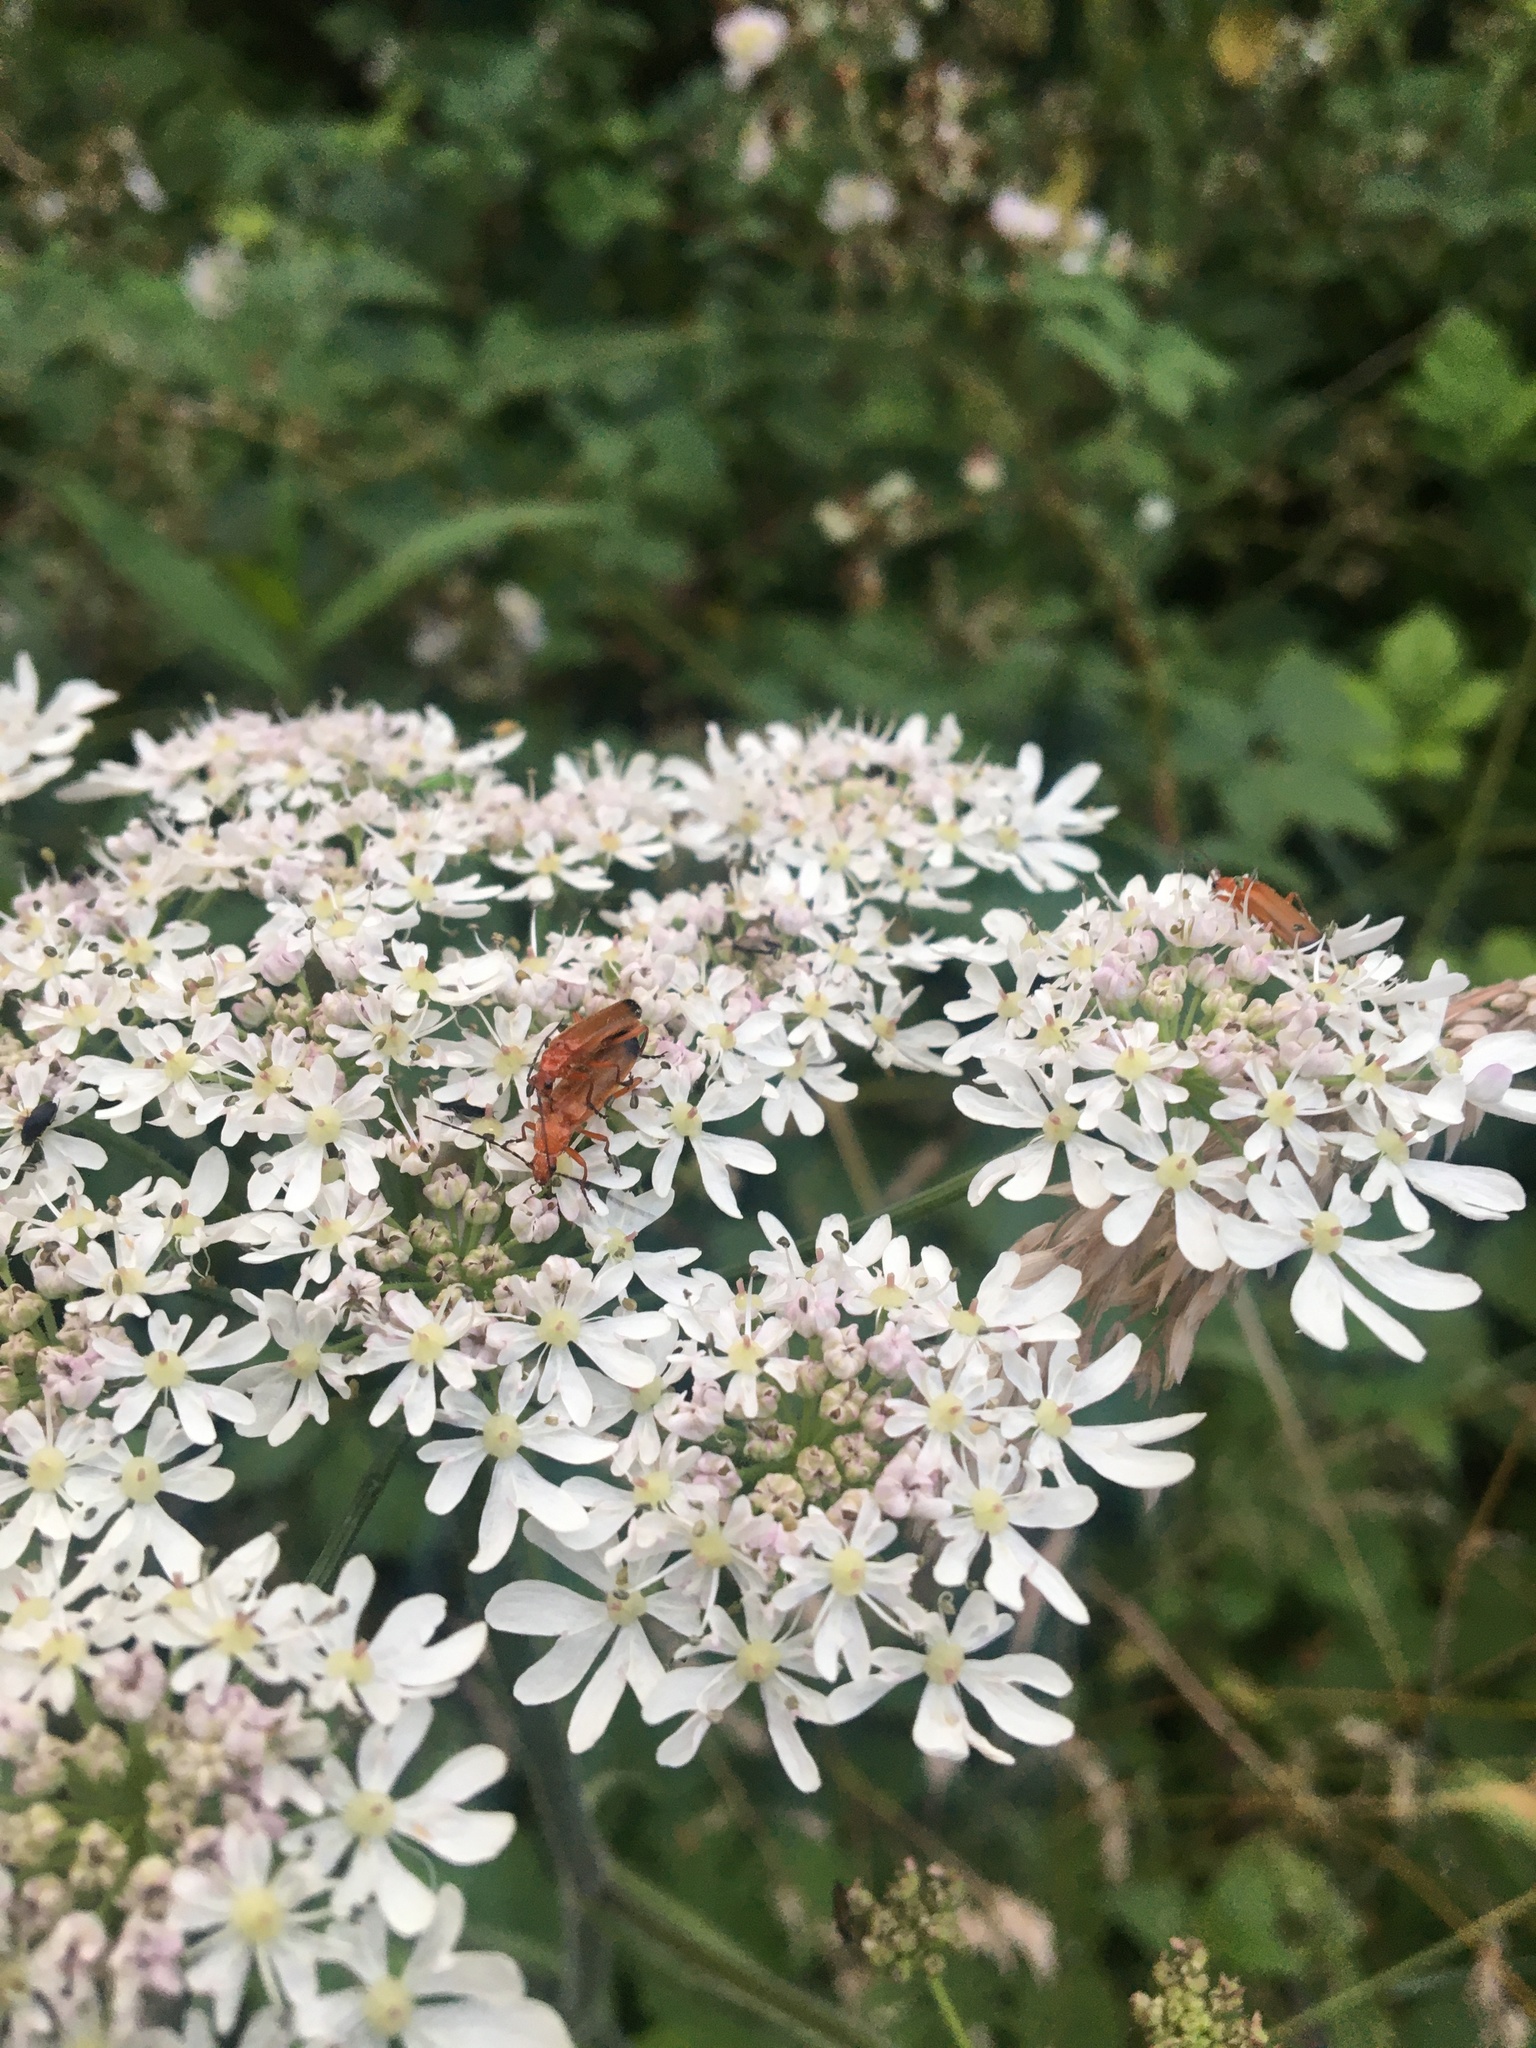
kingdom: Animalia
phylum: Arthropoda
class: Insecta
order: Coleoptera
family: Cantharidae
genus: Rhagonycha
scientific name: Rhagonycha fulva
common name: Common red soldier beetle
